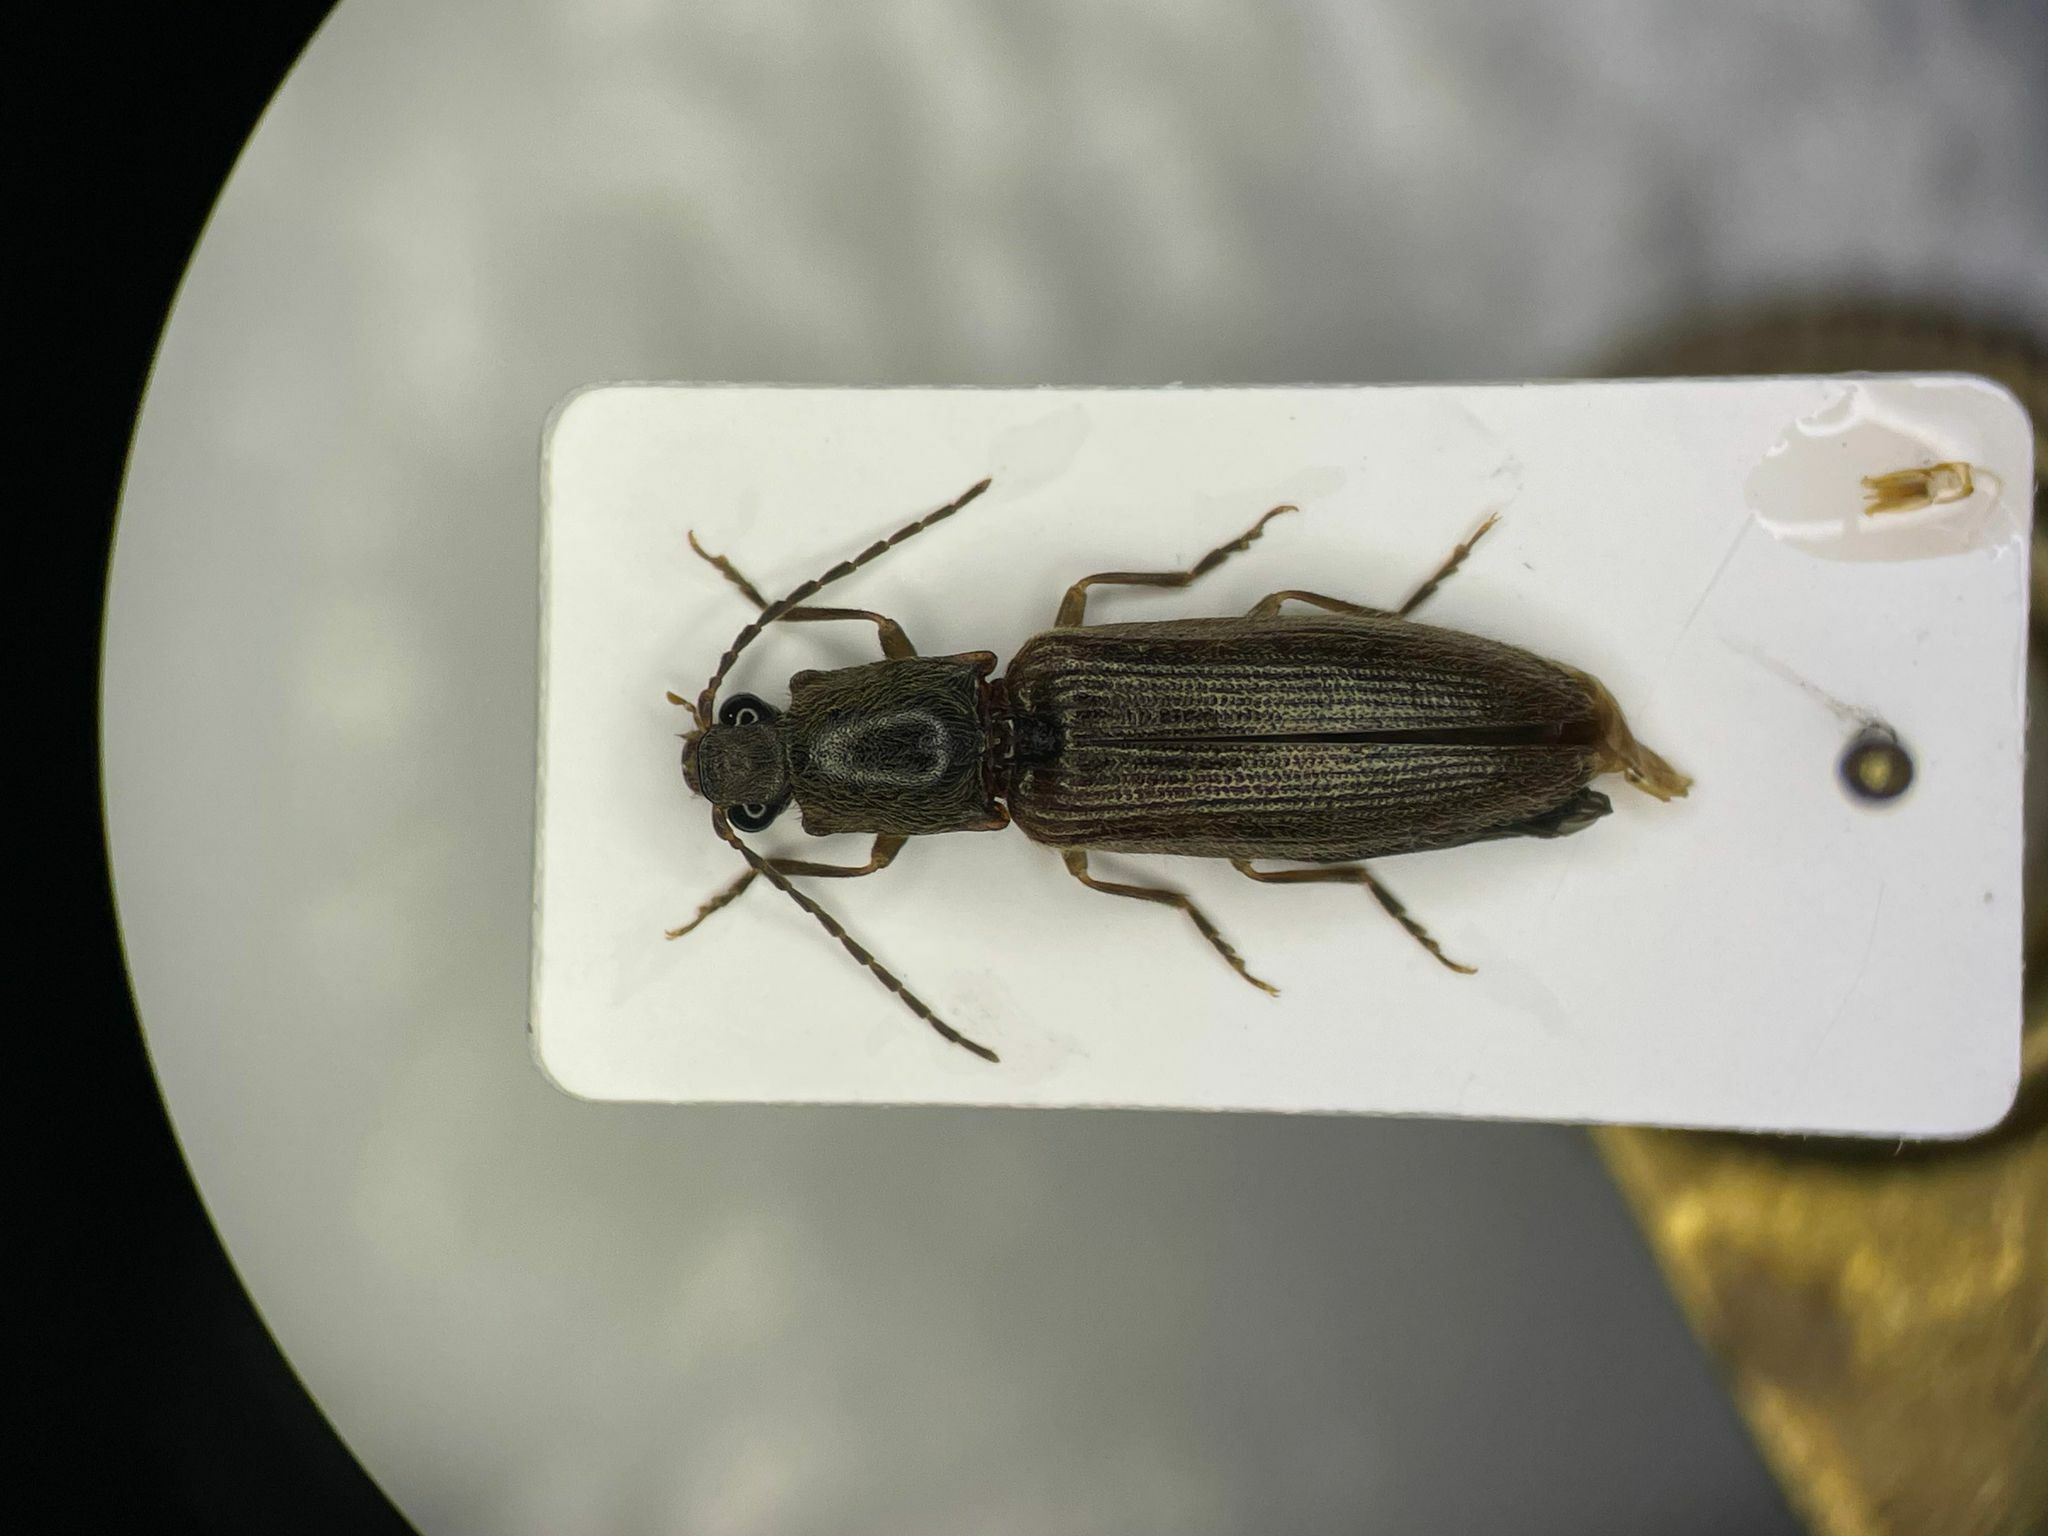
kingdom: Animalia
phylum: Arthropoda
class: Insecta
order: Coleoptera
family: Elateridae
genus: Athous
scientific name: Athous brightwelli
